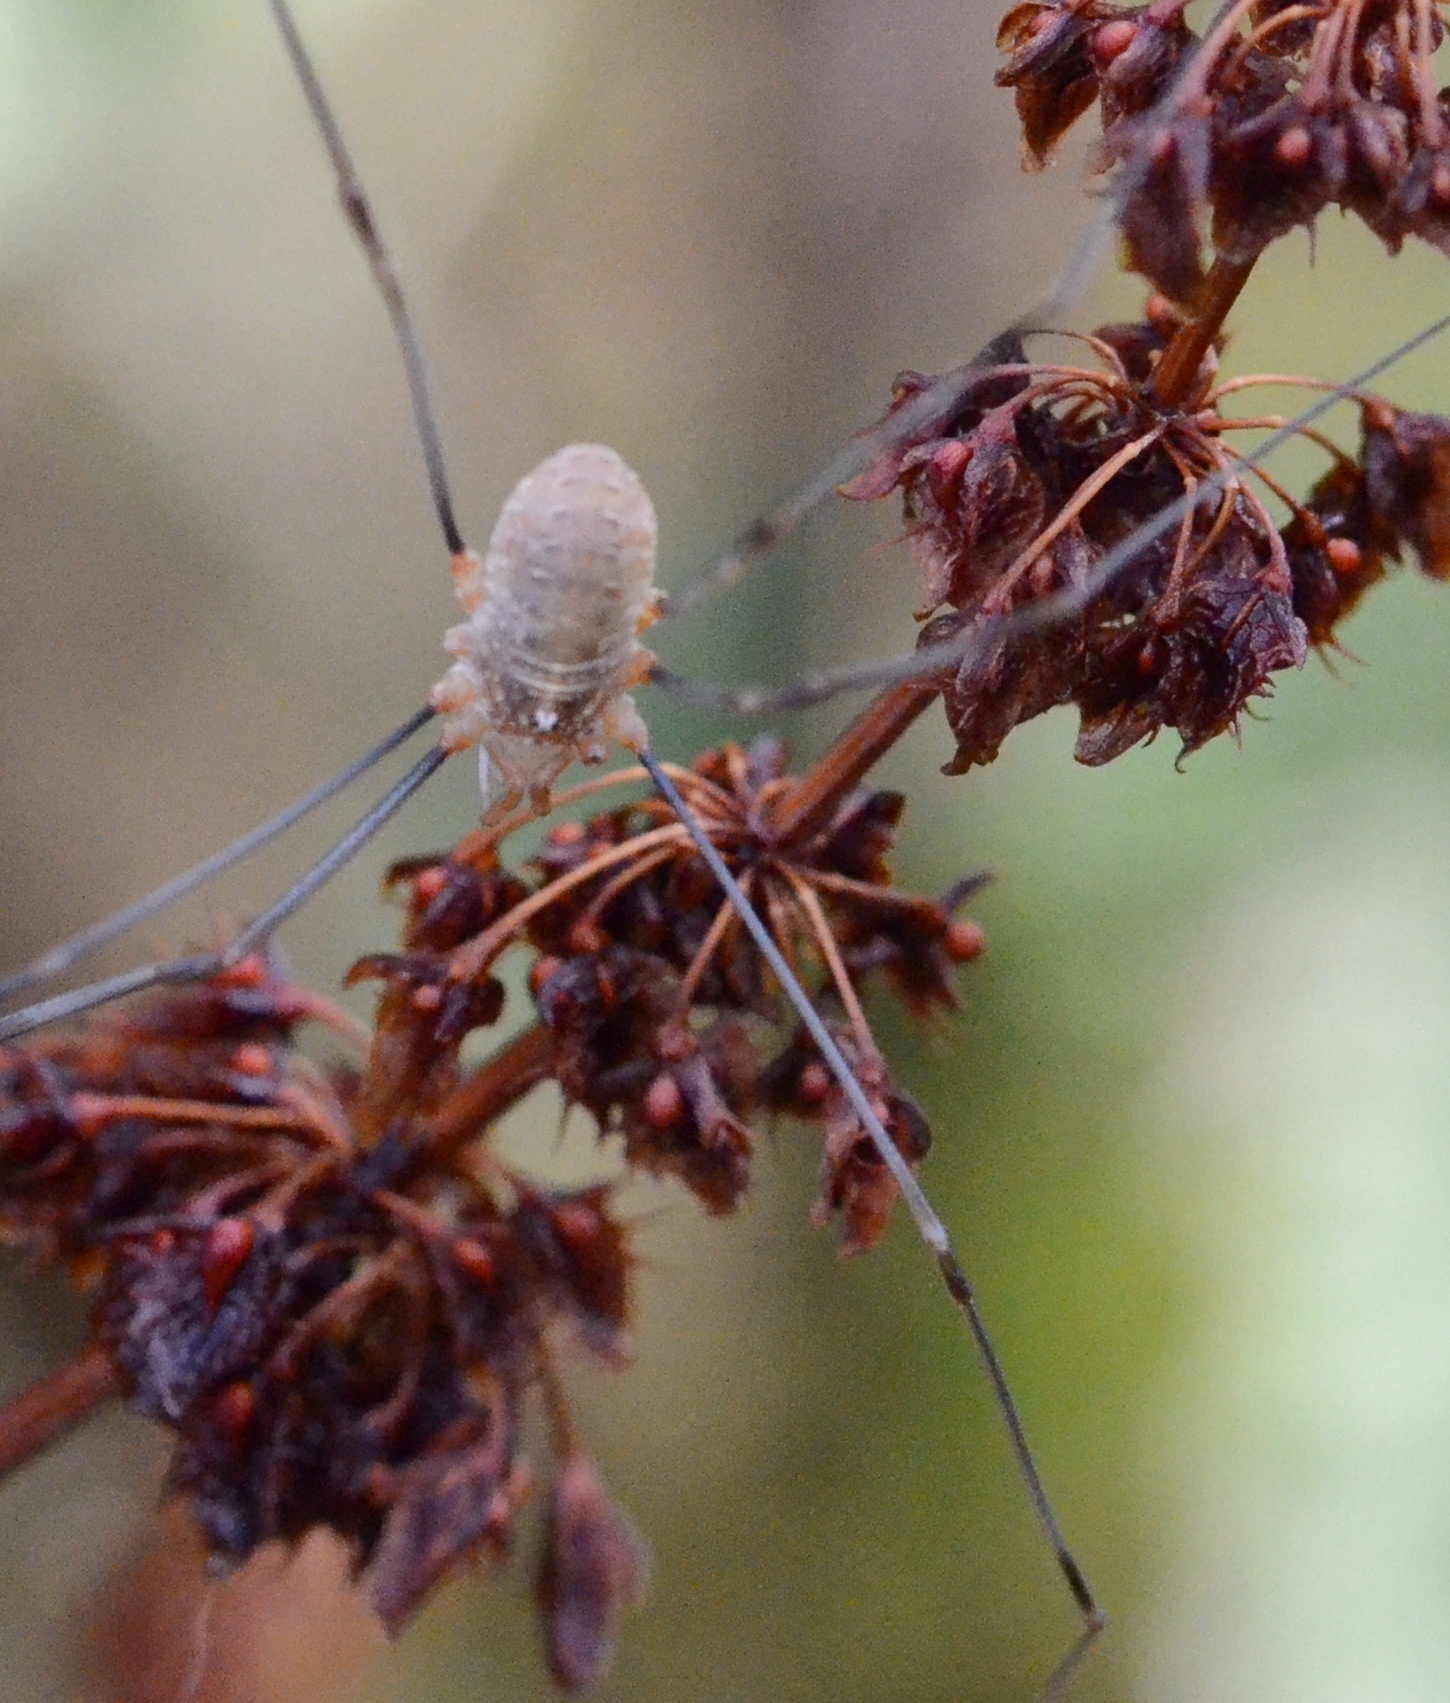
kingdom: Animalia
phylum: Arthropoda
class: Arachnida
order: Opiliones
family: Phalangiidae
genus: Opilio
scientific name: Opilio canestrinii
